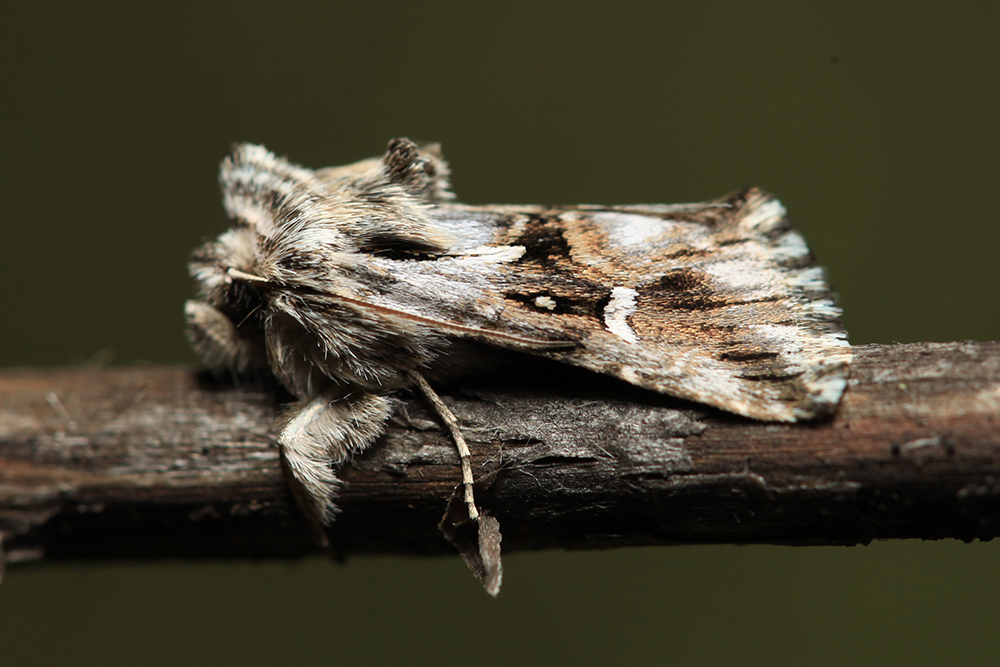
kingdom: Animalia
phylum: Arthropoda
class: Insecta
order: Lepidoptera
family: Noctuidae
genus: Calophasia
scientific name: Calophasia lunula
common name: Toadflax brocade
